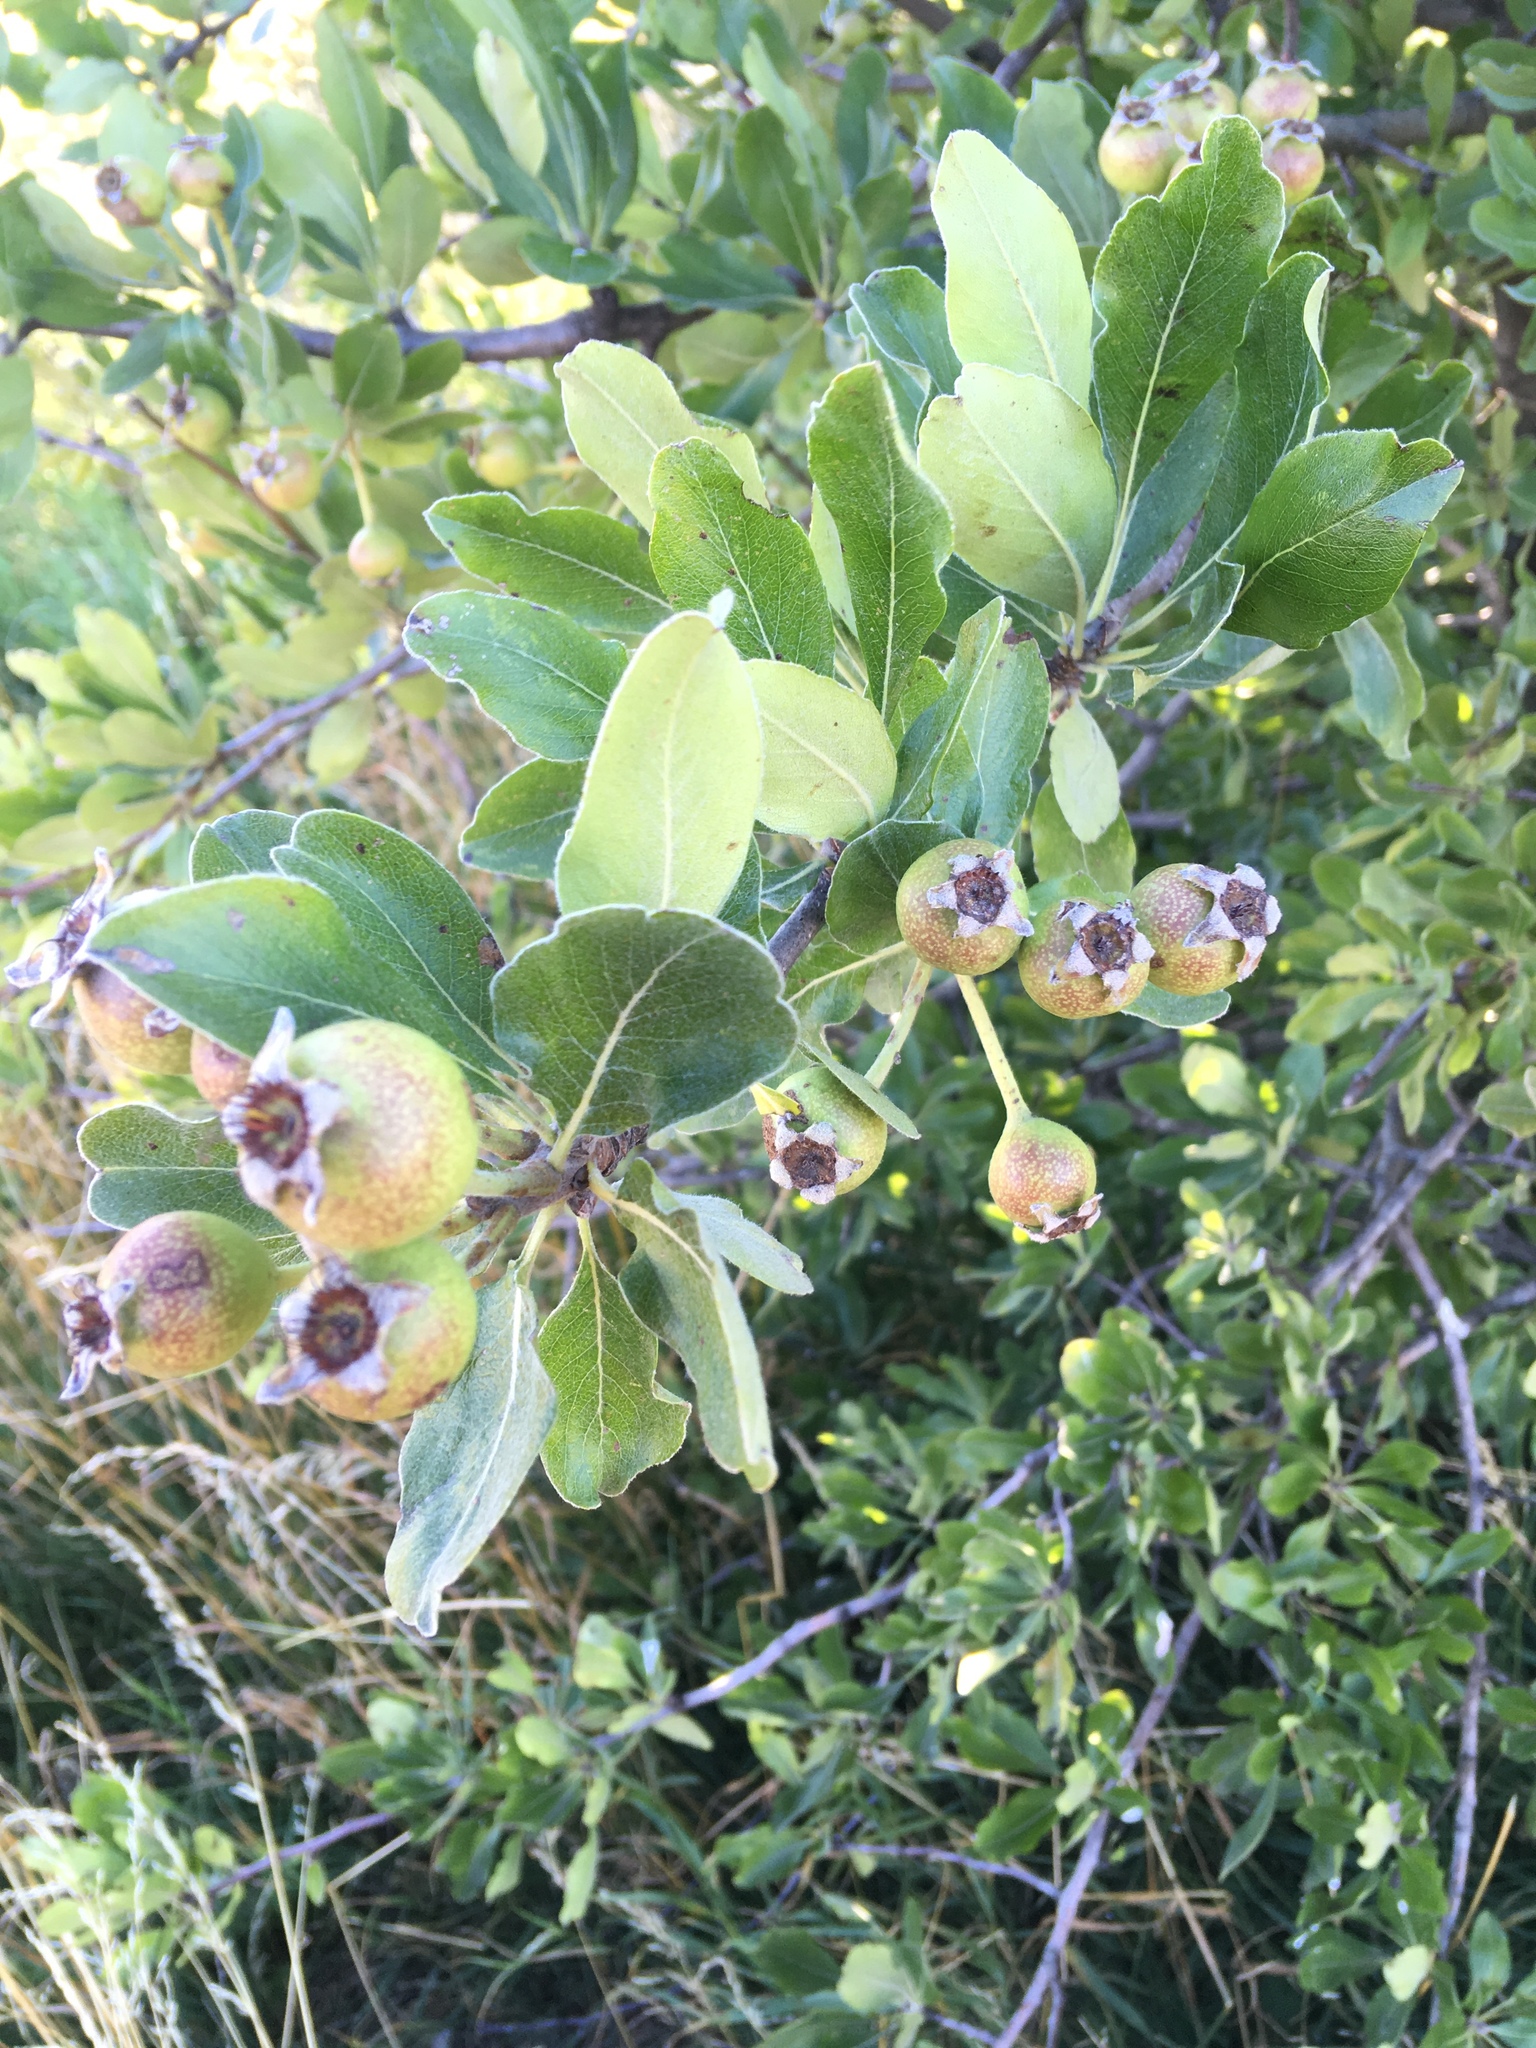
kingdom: Plantae
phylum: Tracheophyta
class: Magnoliopsida
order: Rosales
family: Rosaceae
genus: Pyrus
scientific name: Pyrus nivalis
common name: Snow pear
